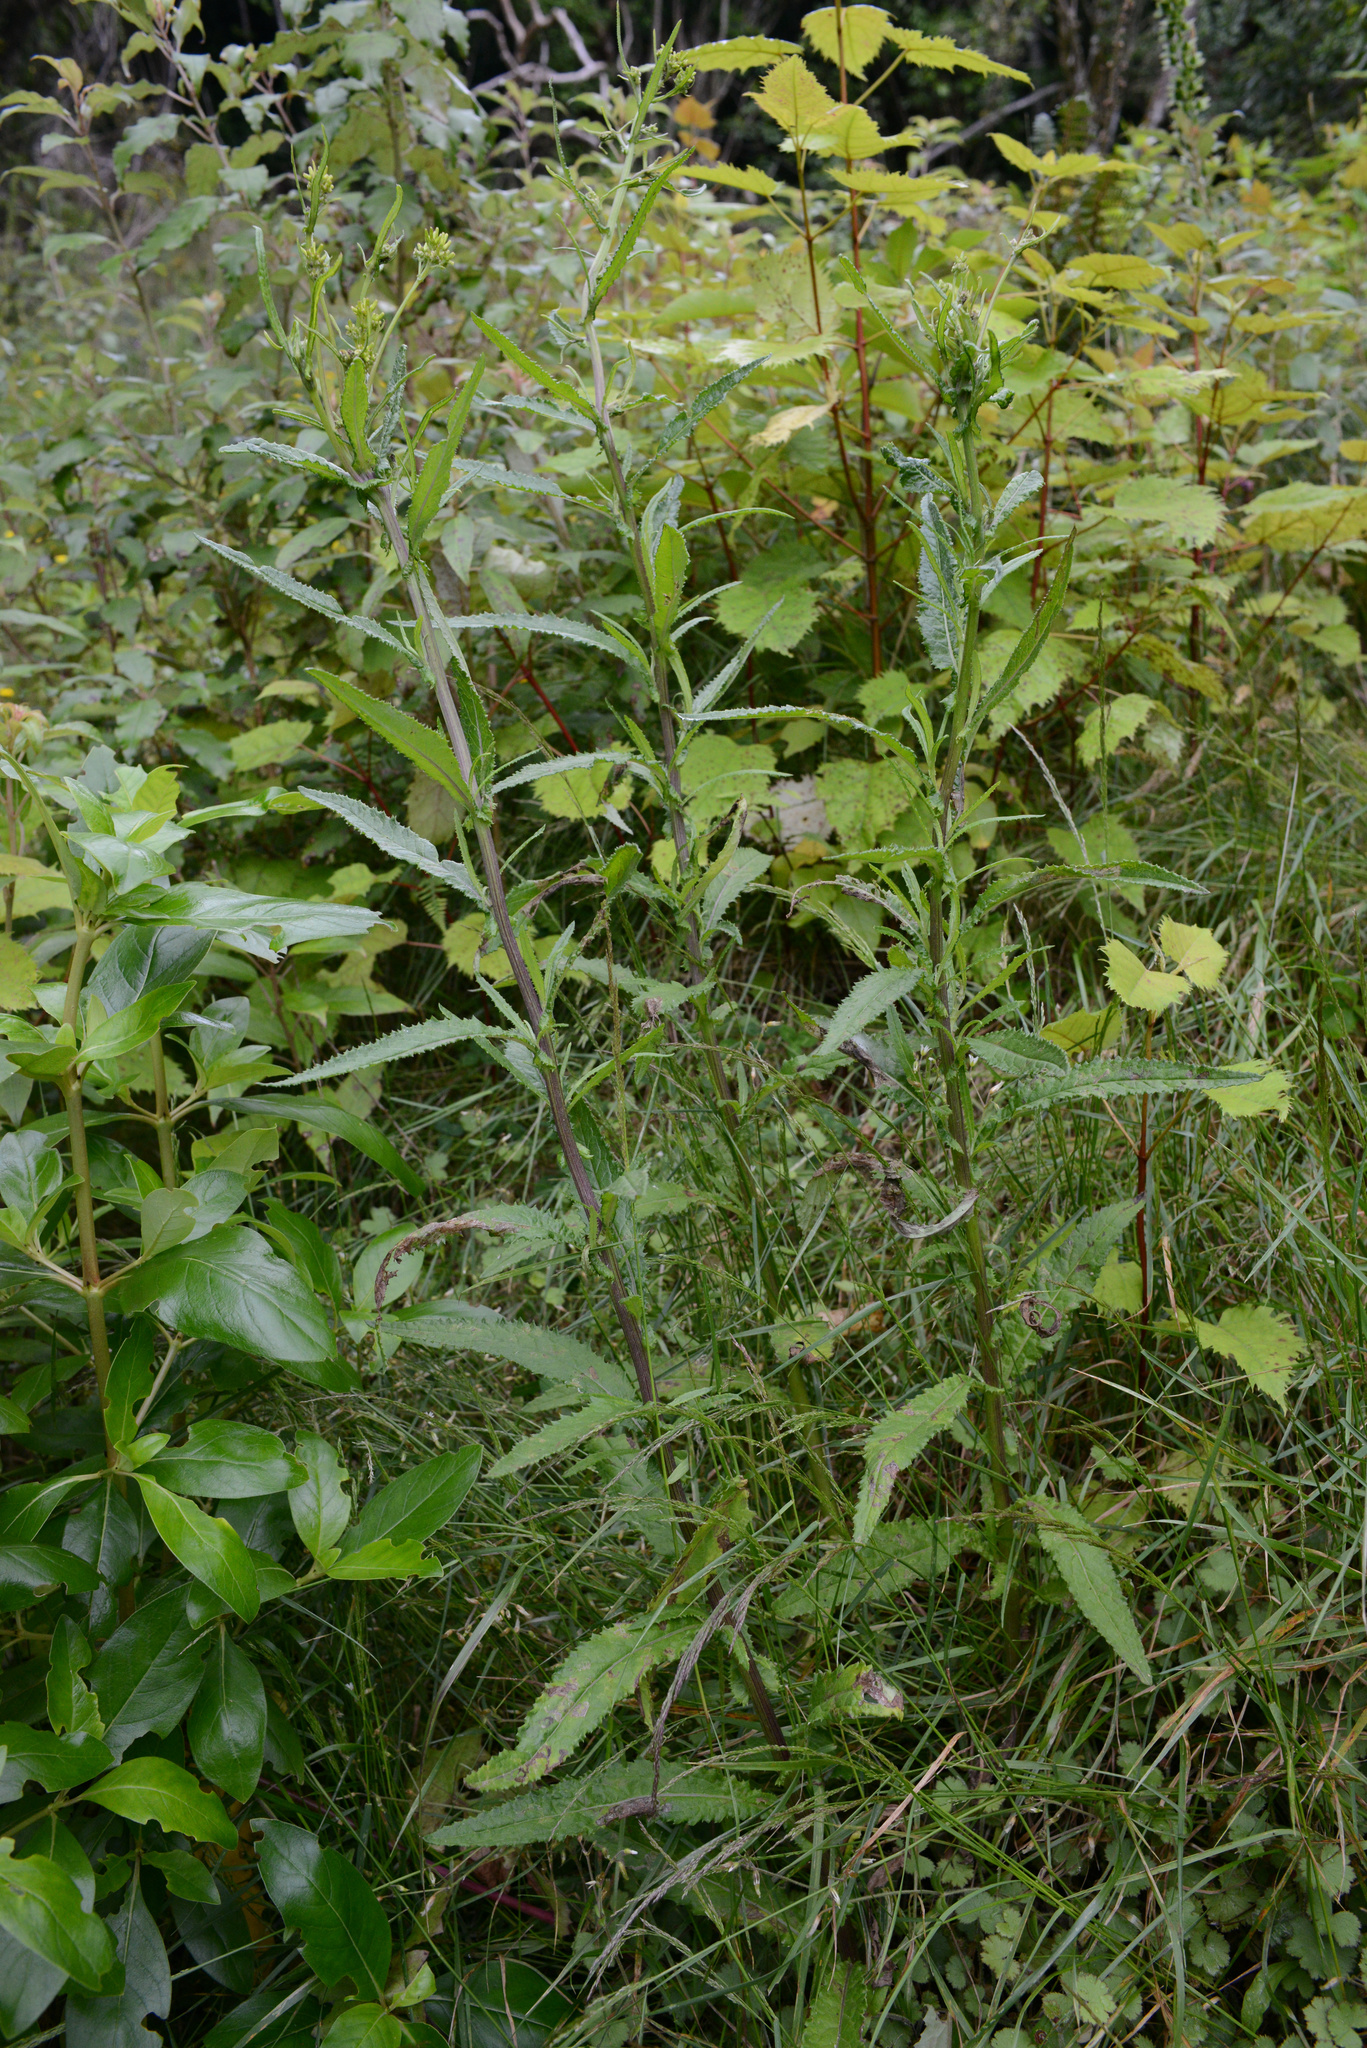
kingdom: Plantae
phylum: Tracheophyta
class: Magnoliopsida
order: Asterales
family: Asteraceae
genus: Senecio
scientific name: Senecio minimus
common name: Toothed fireweed
